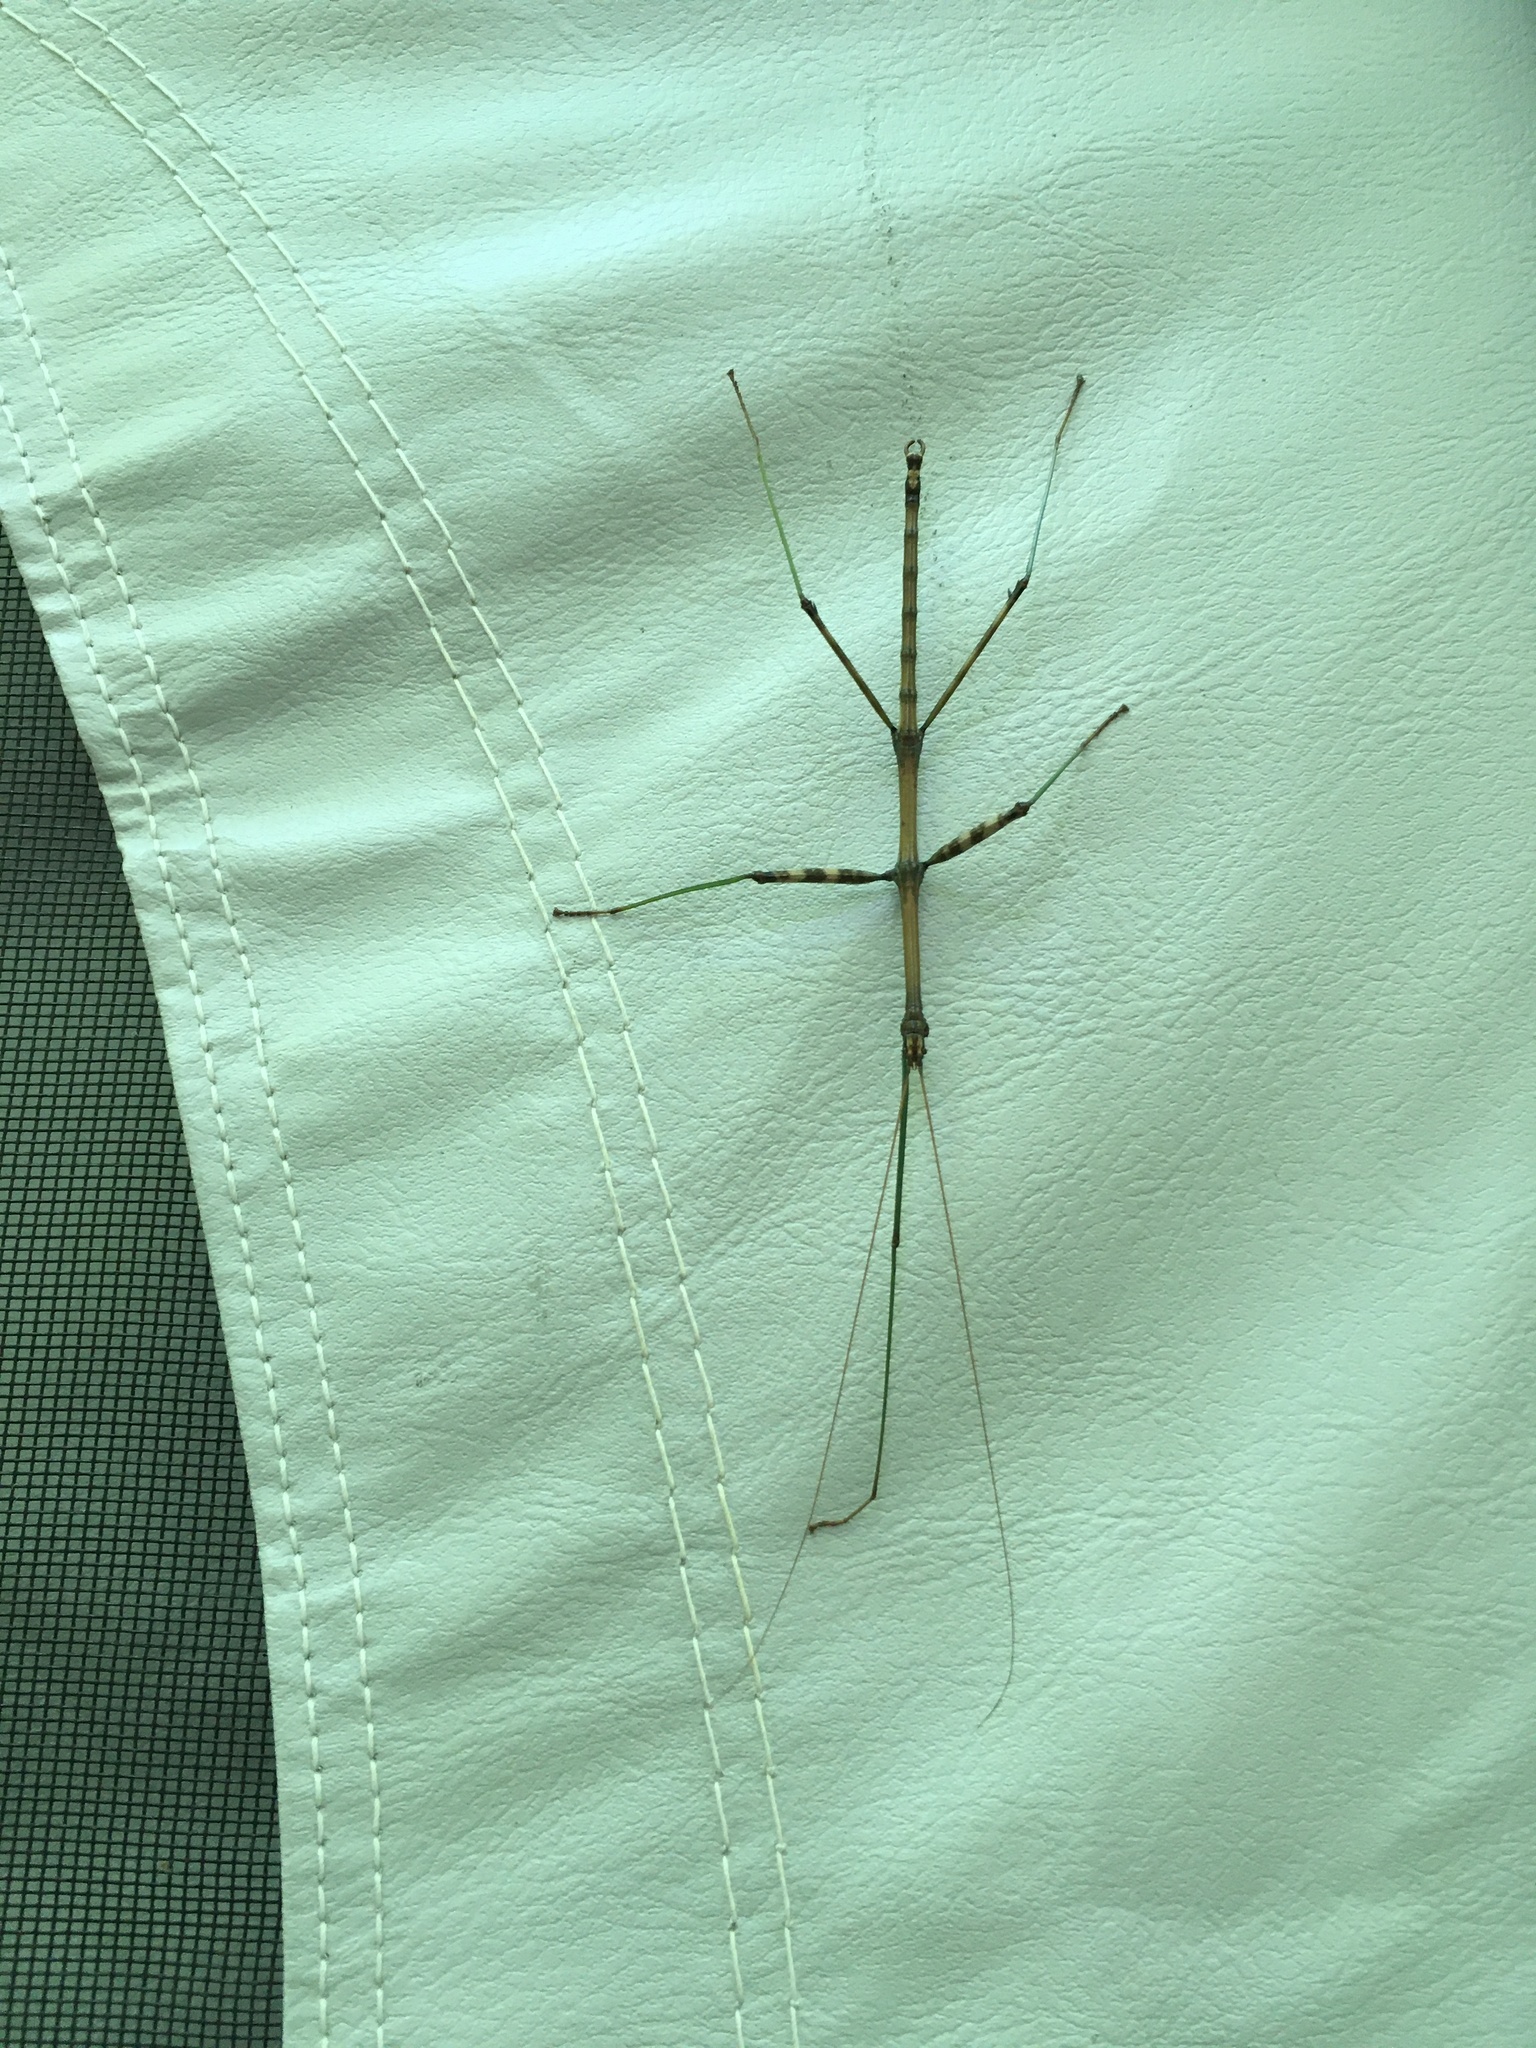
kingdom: Animalia
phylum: Arthropoda
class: Insecta
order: Phasmida
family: Diapheromeridae
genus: Diapheromera
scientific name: Diapheromera femorata
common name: Common american walkingstick
